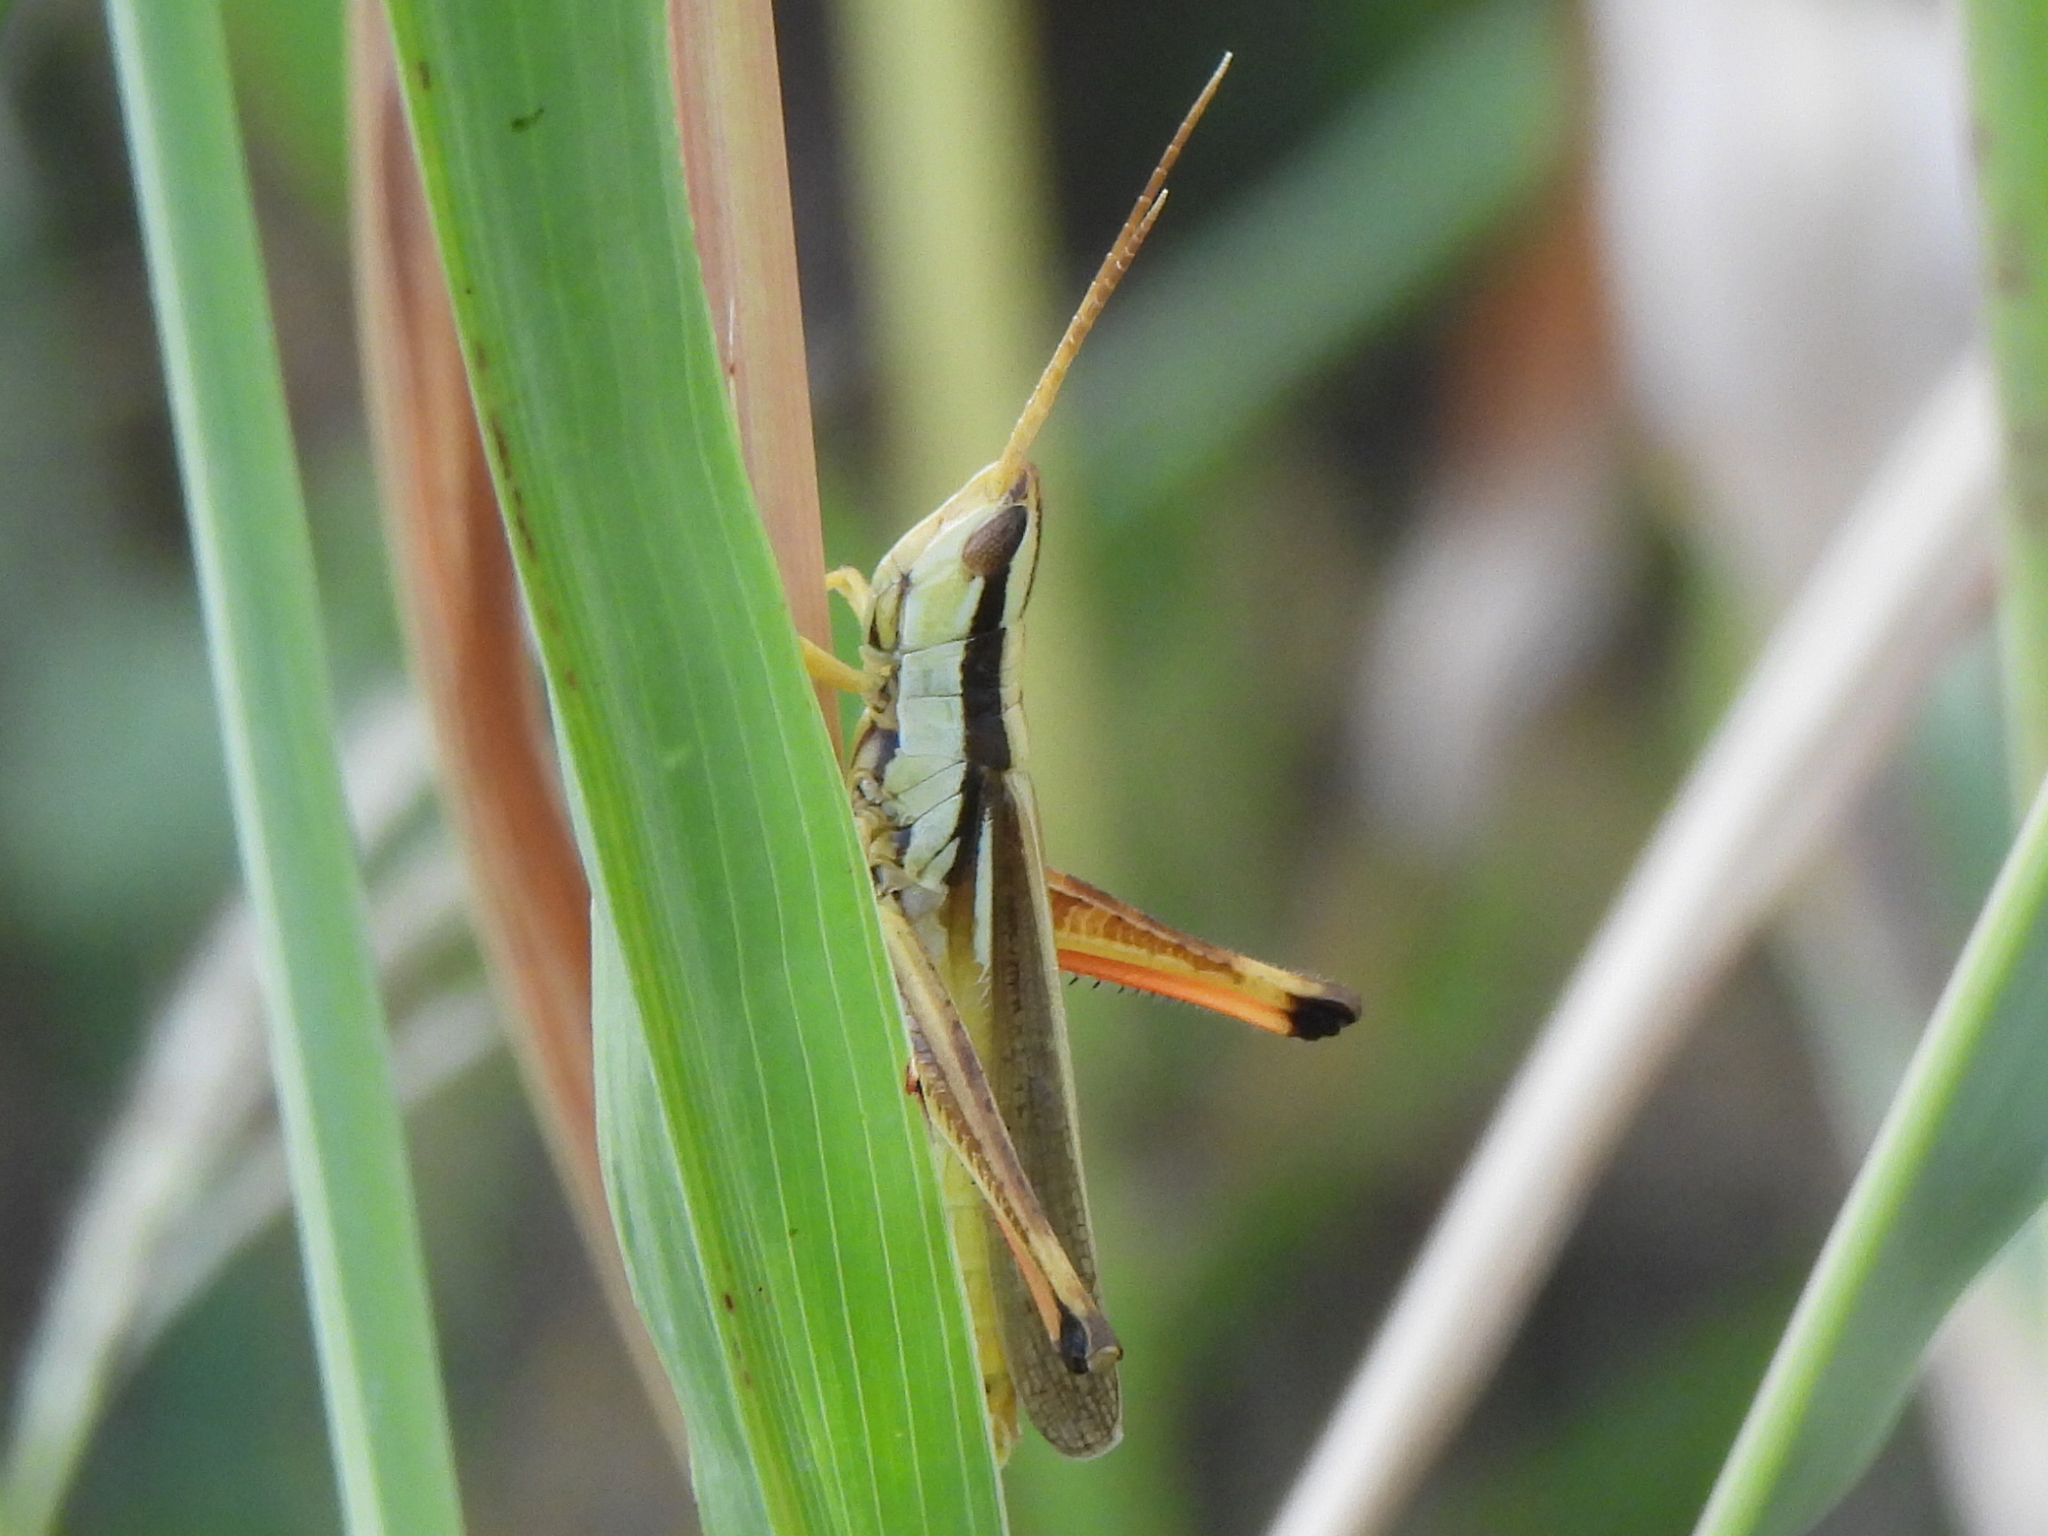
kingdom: Animalia
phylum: Arthropoda
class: Insecta
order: Orthoptera
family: Acrididae
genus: Mermiria
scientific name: Mermiria bivittata
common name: Two-striped mermiria grasshopper
